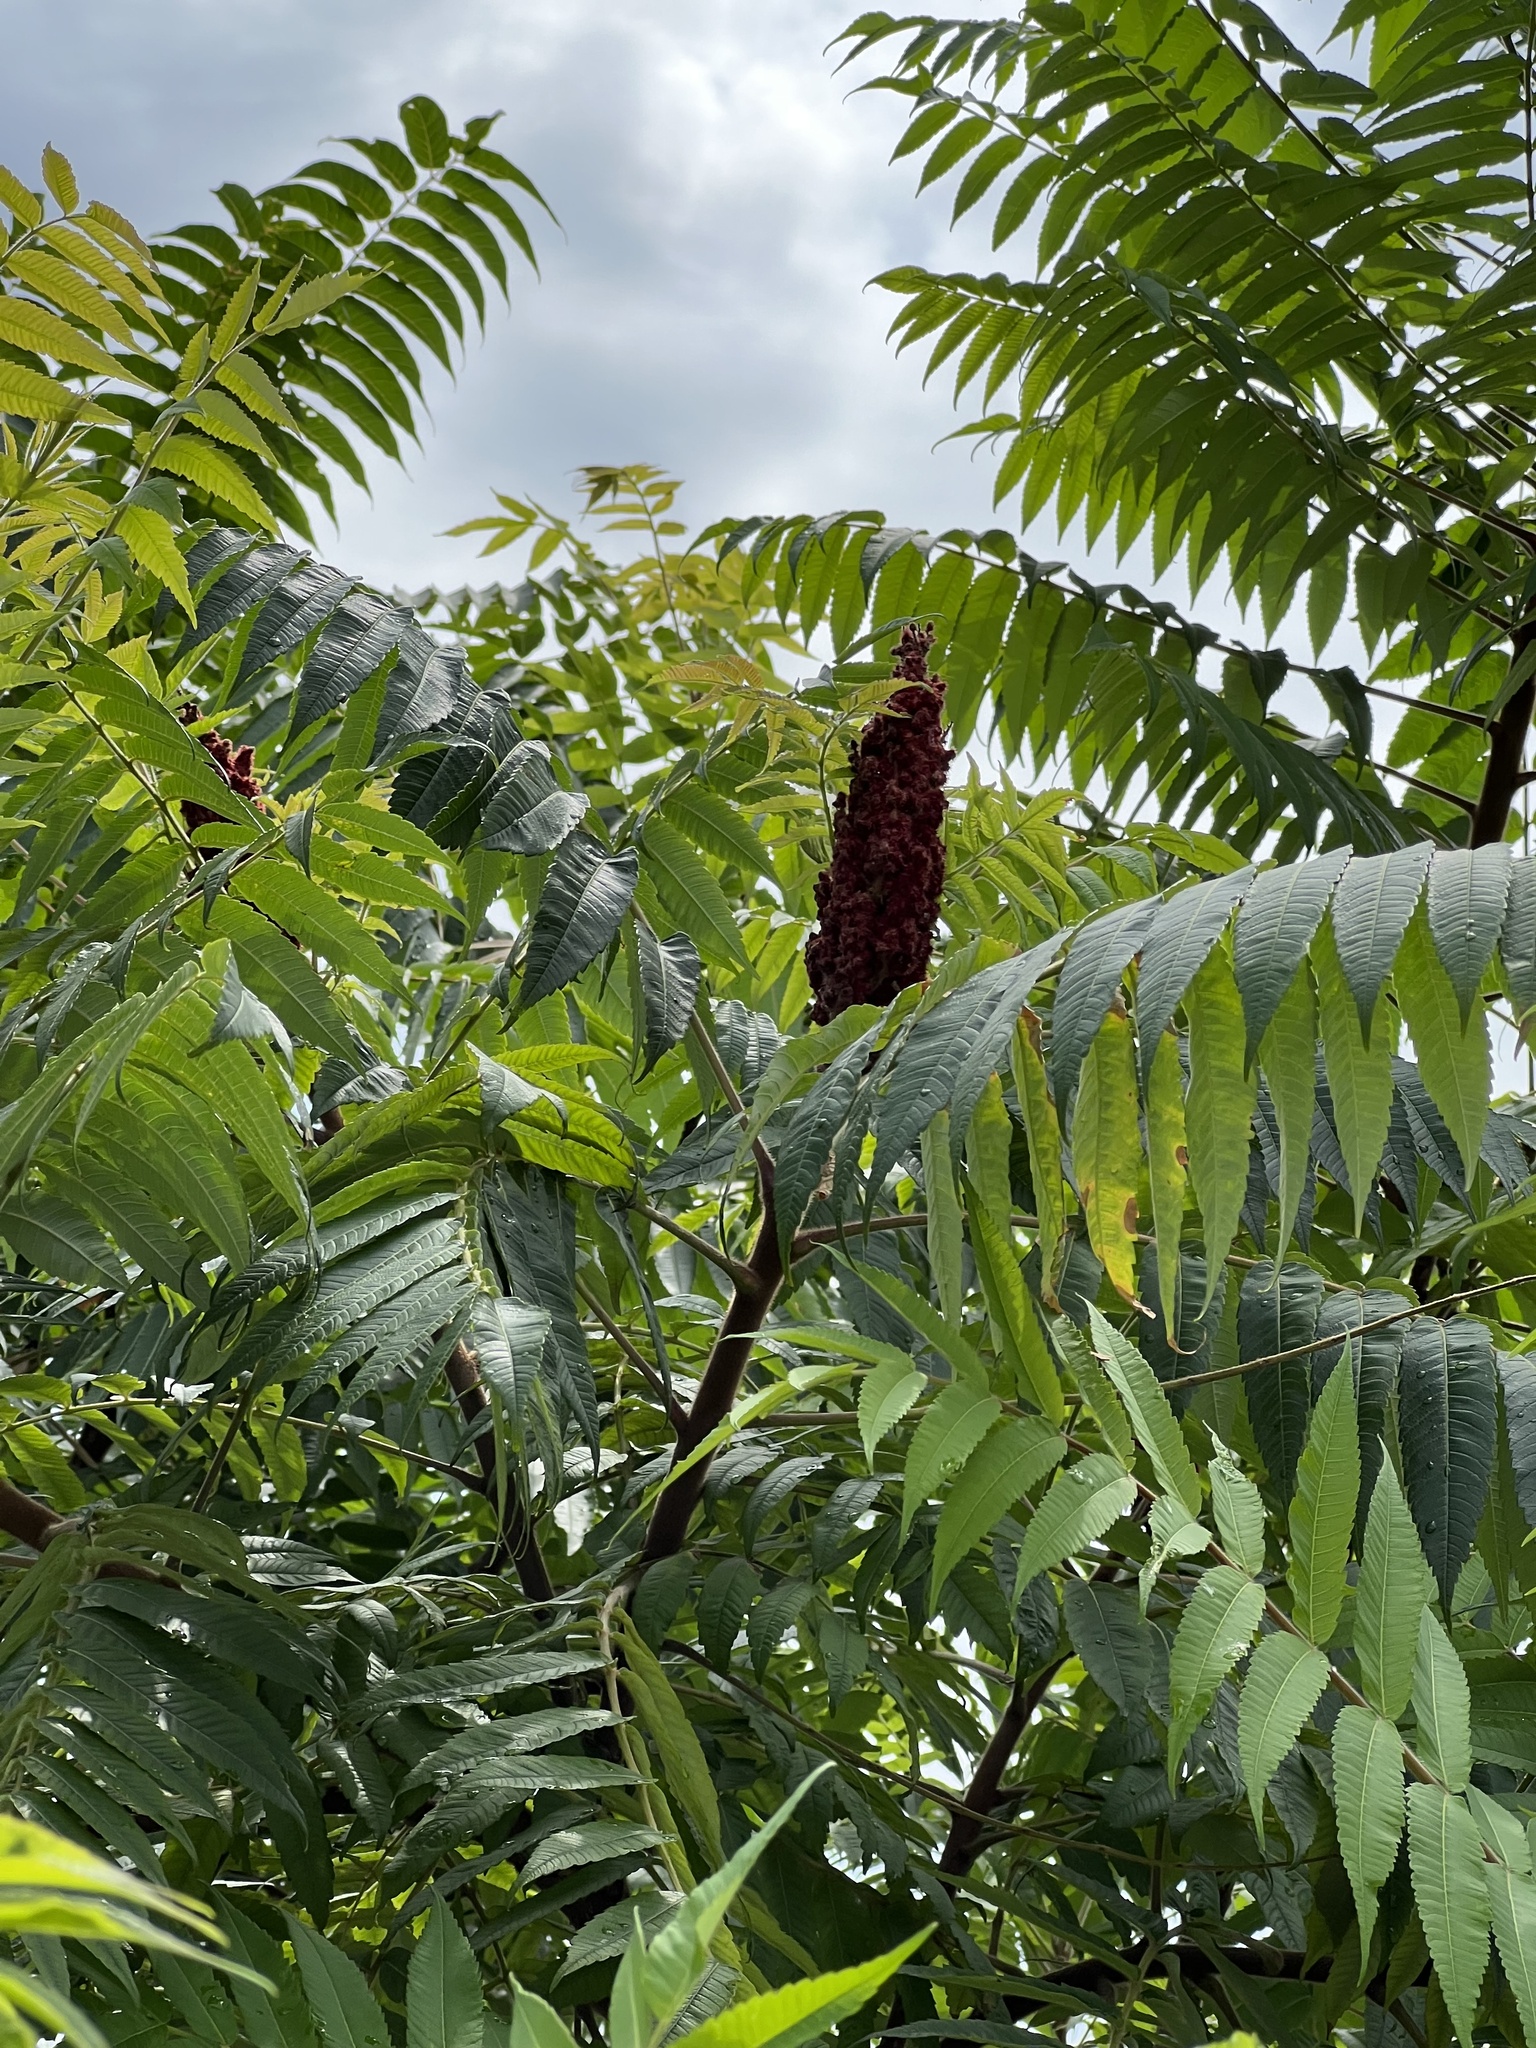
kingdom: Plantae
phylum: Tracheophyta
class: Magnoliopsida
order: Sapindales
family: Anacardiaceae
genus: Rhus
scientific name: Rhus typhina
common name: Staghorn sumac
